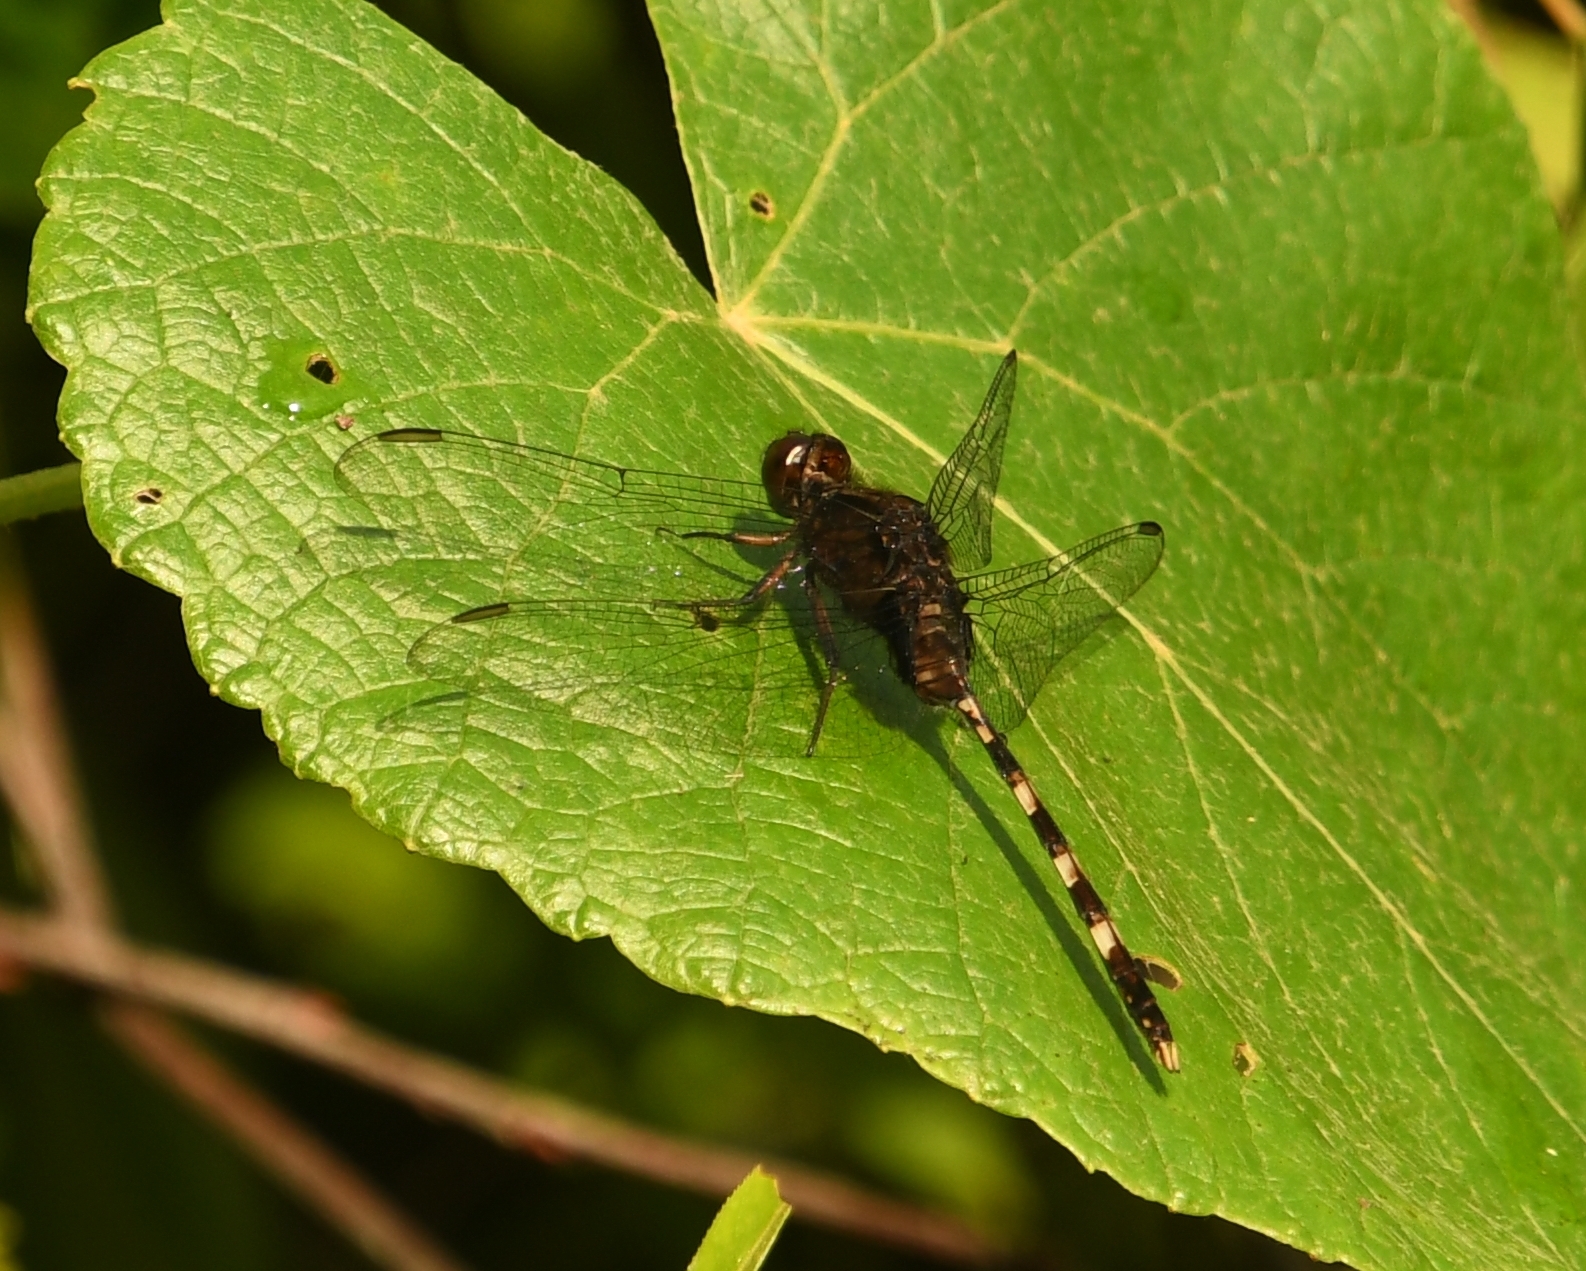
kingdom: Animalia
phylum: Arthropoda
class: Insecta
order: Odonata
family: Libellulidae
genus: Erythemis
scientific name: Erythemis plebeja
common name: Pin-tailed pondhawk
